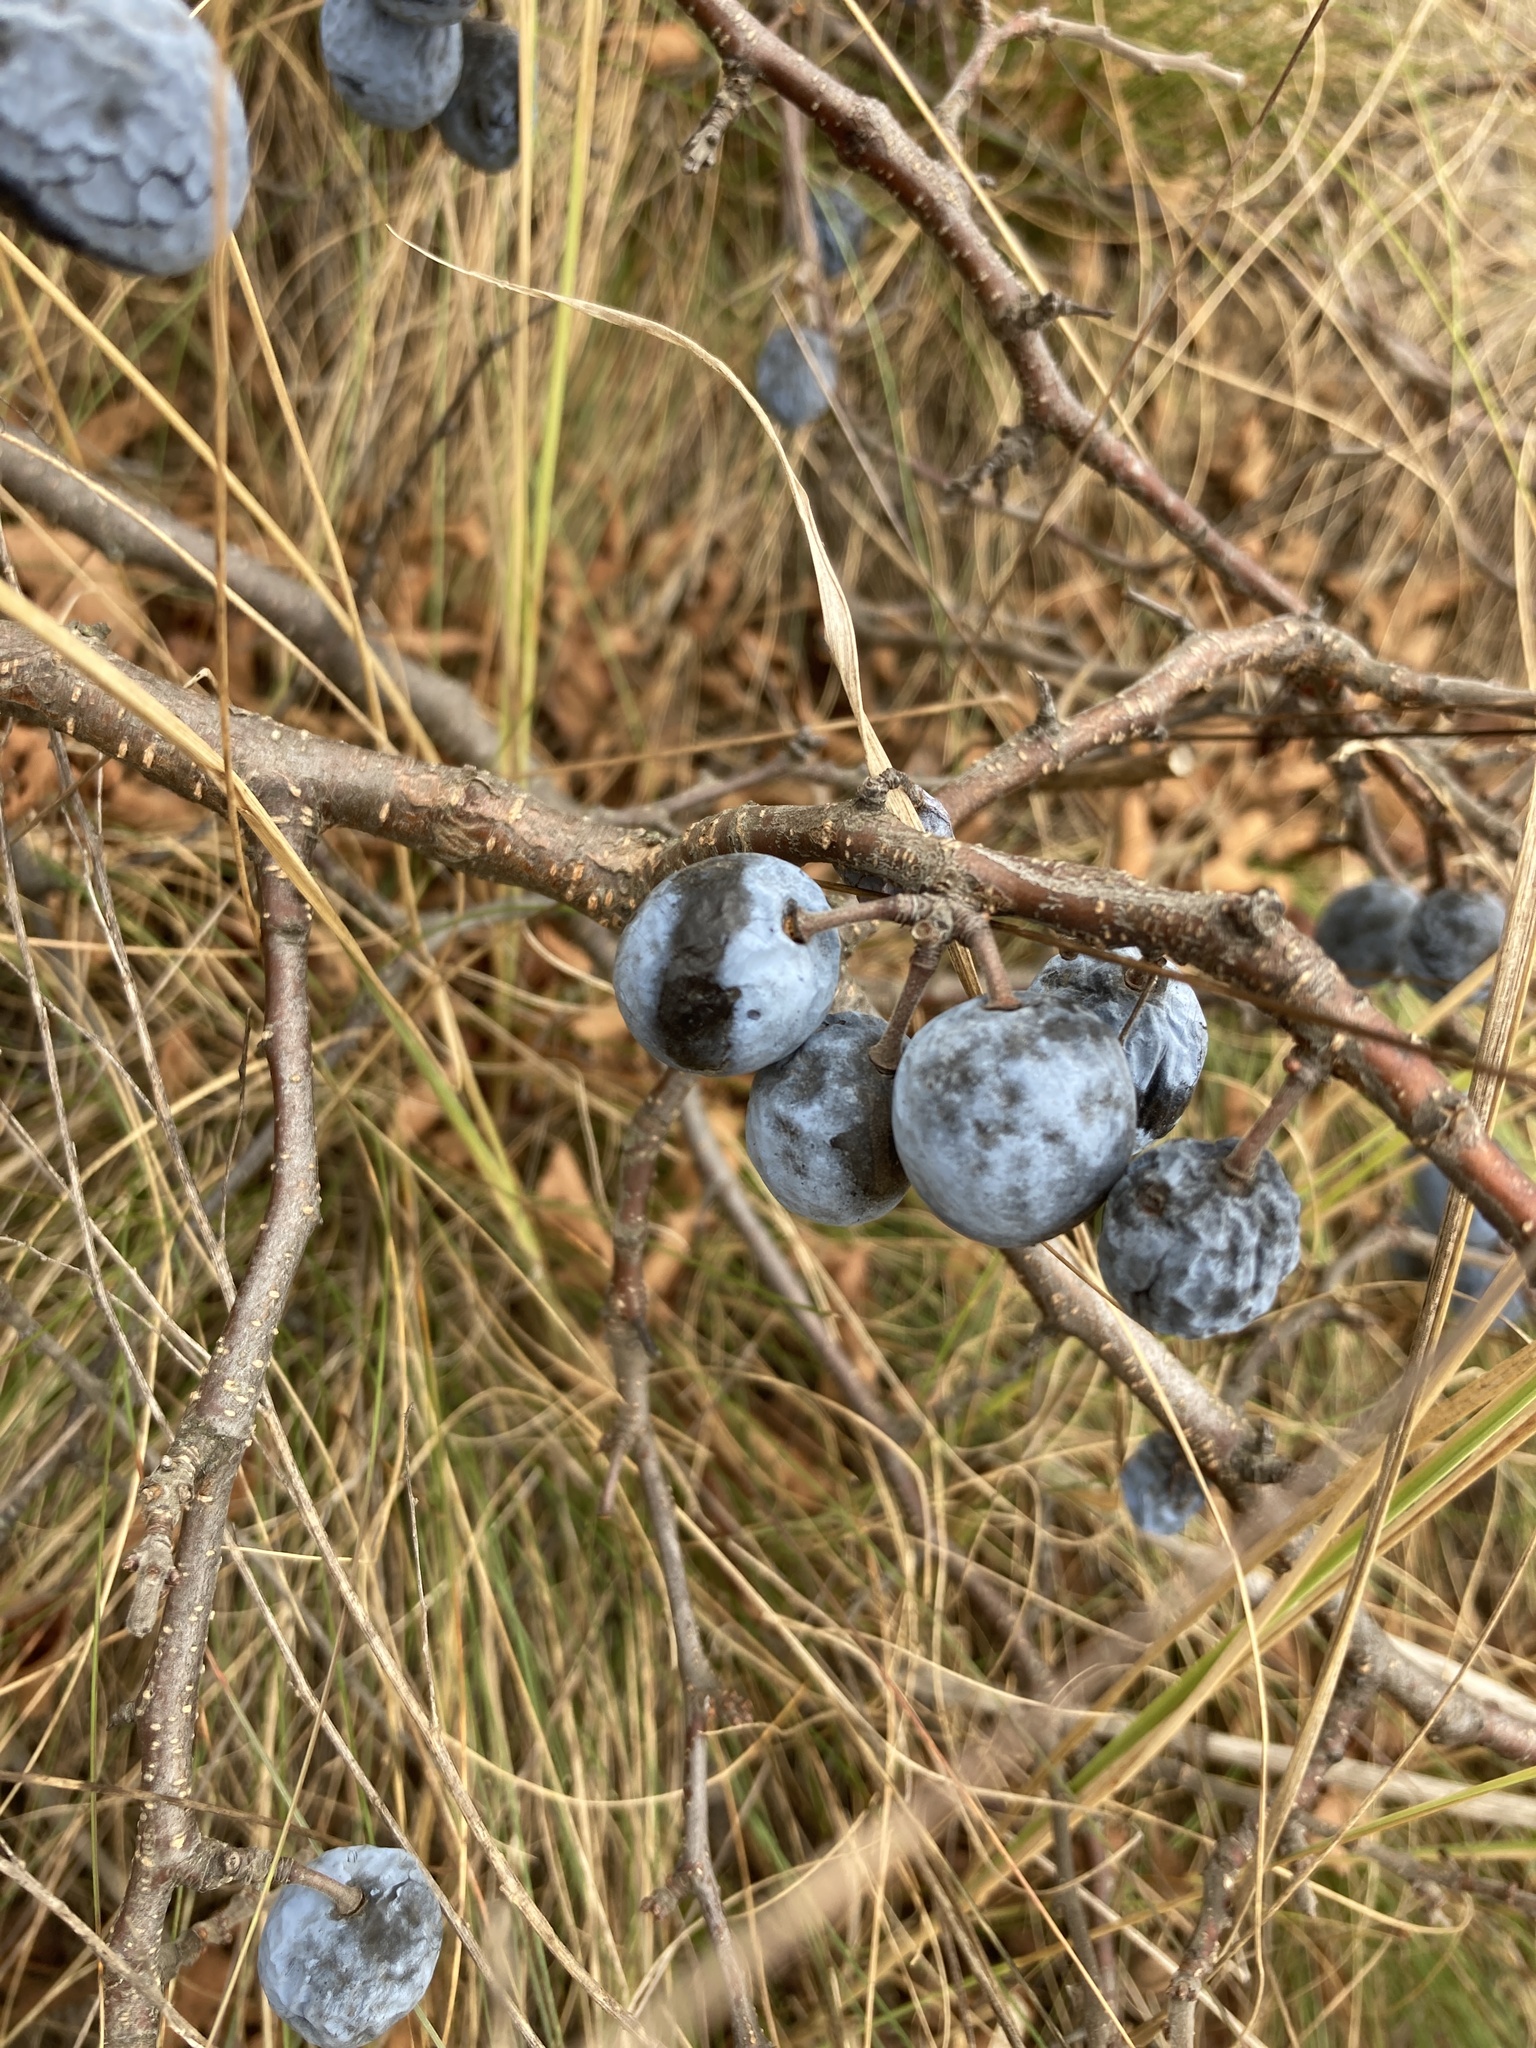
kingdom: Plantae
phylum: Tracheophyta
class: Magnoliopsida
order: Rosales
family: Rosaceae
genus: Prunus
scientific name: Prunus spinosa
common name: Blackthorn
